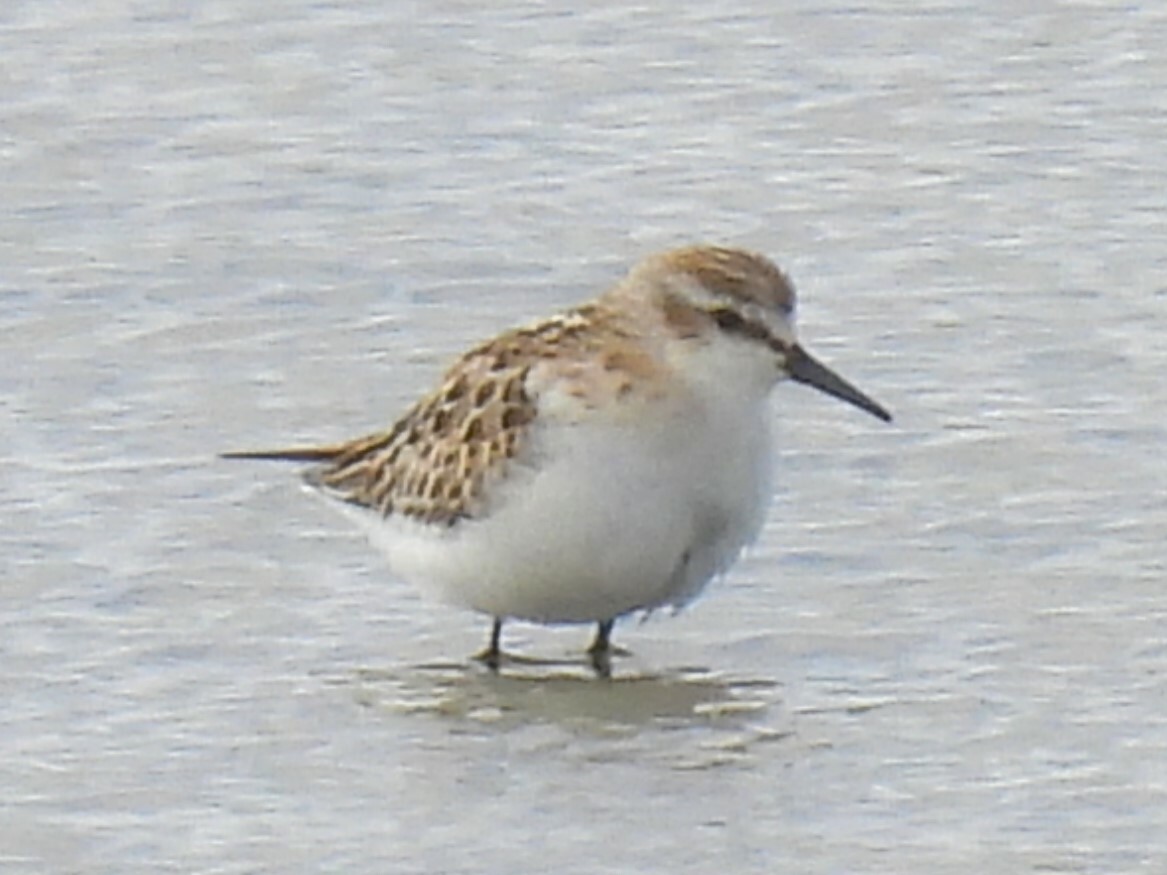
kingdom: Animalia
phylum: Chordata
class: Aves
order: Charadriiformes
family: Scolopacidae
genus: Calidris
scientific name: Calidris minuta
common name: Little stint
